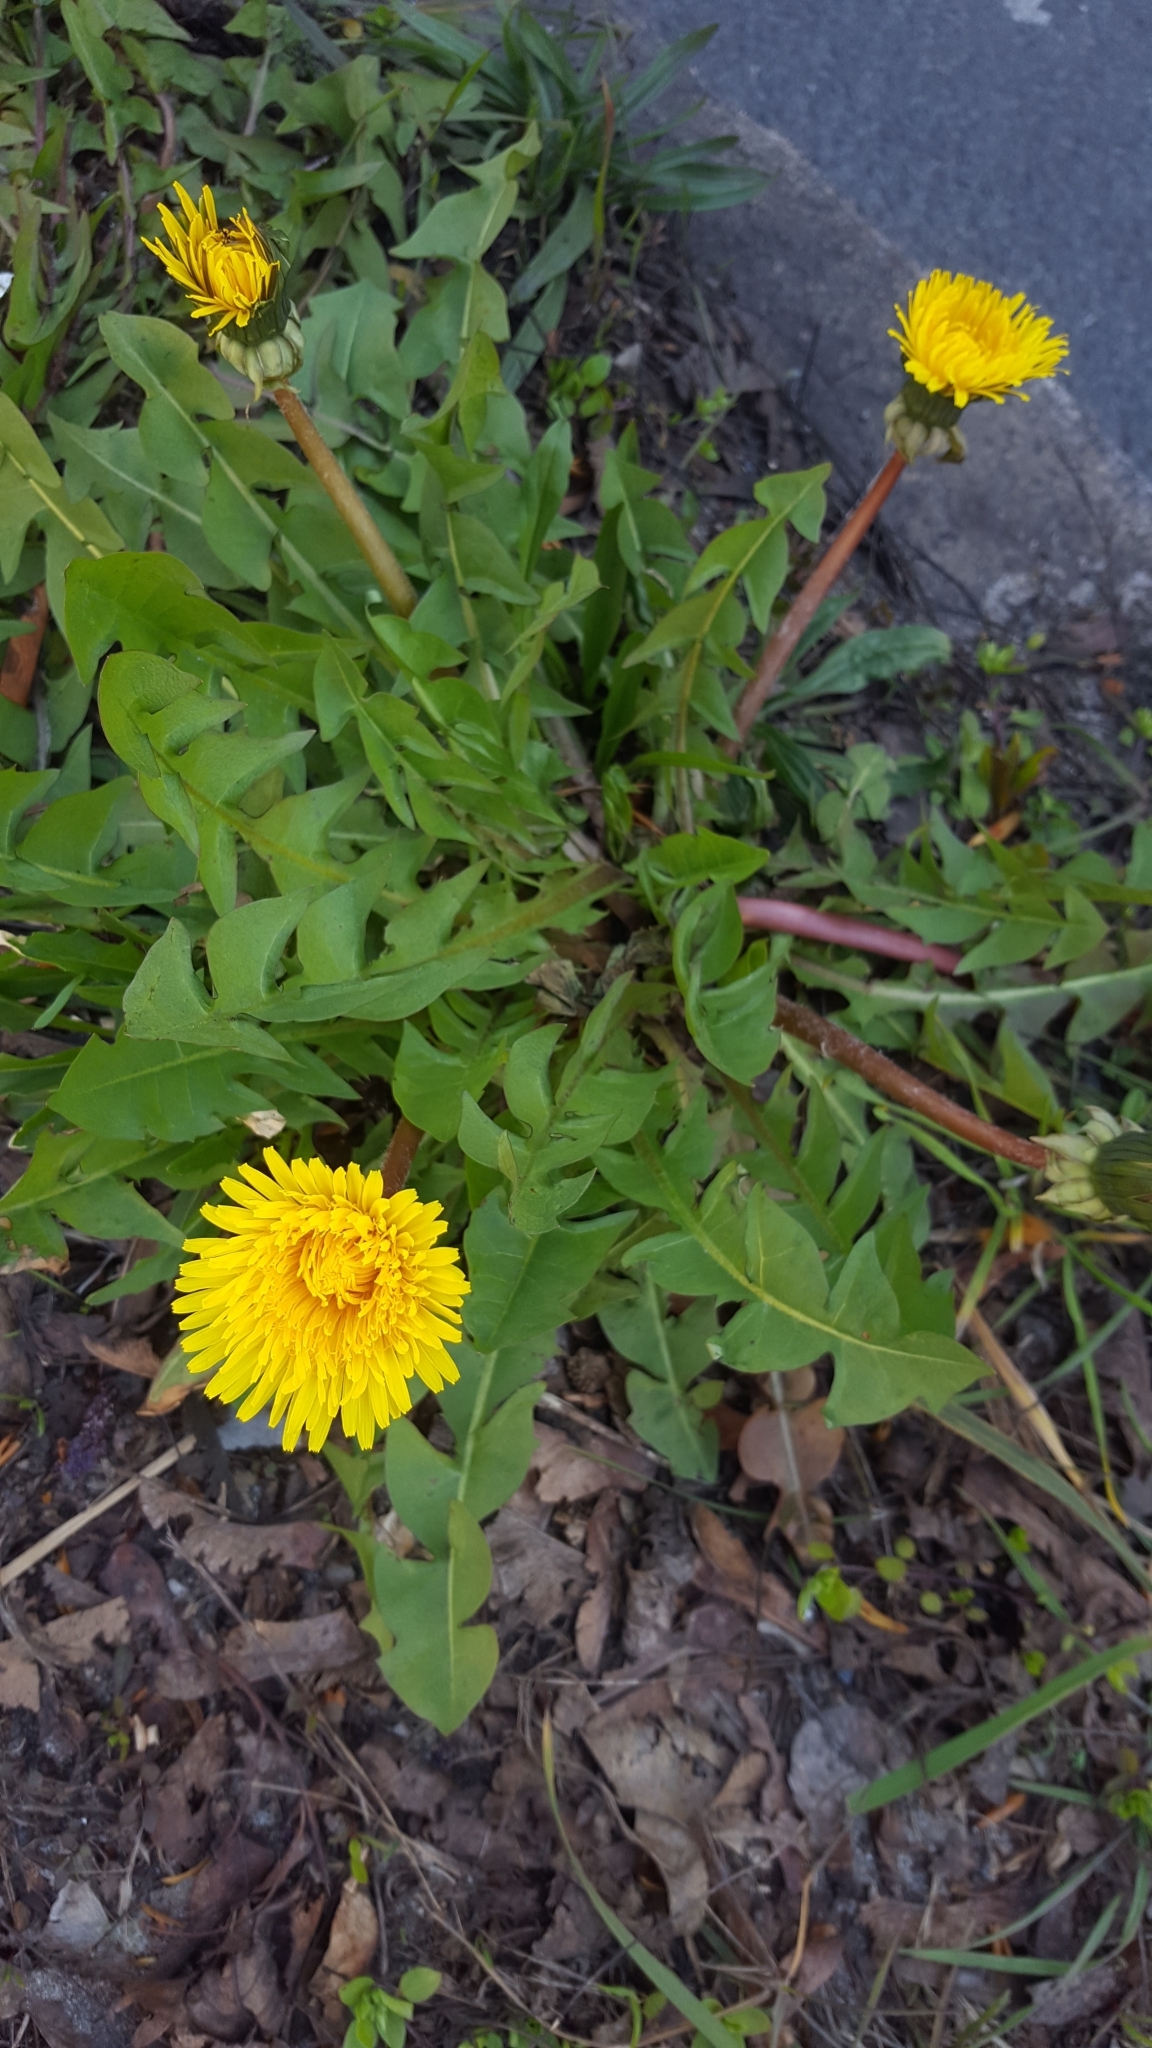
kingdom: Plantae
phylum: Tracheophyta
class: Magnoliopsida
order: Asterales
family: Asteraceae
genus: Taraxacum
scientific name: Taraxacum officinale
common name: Common dandelion
